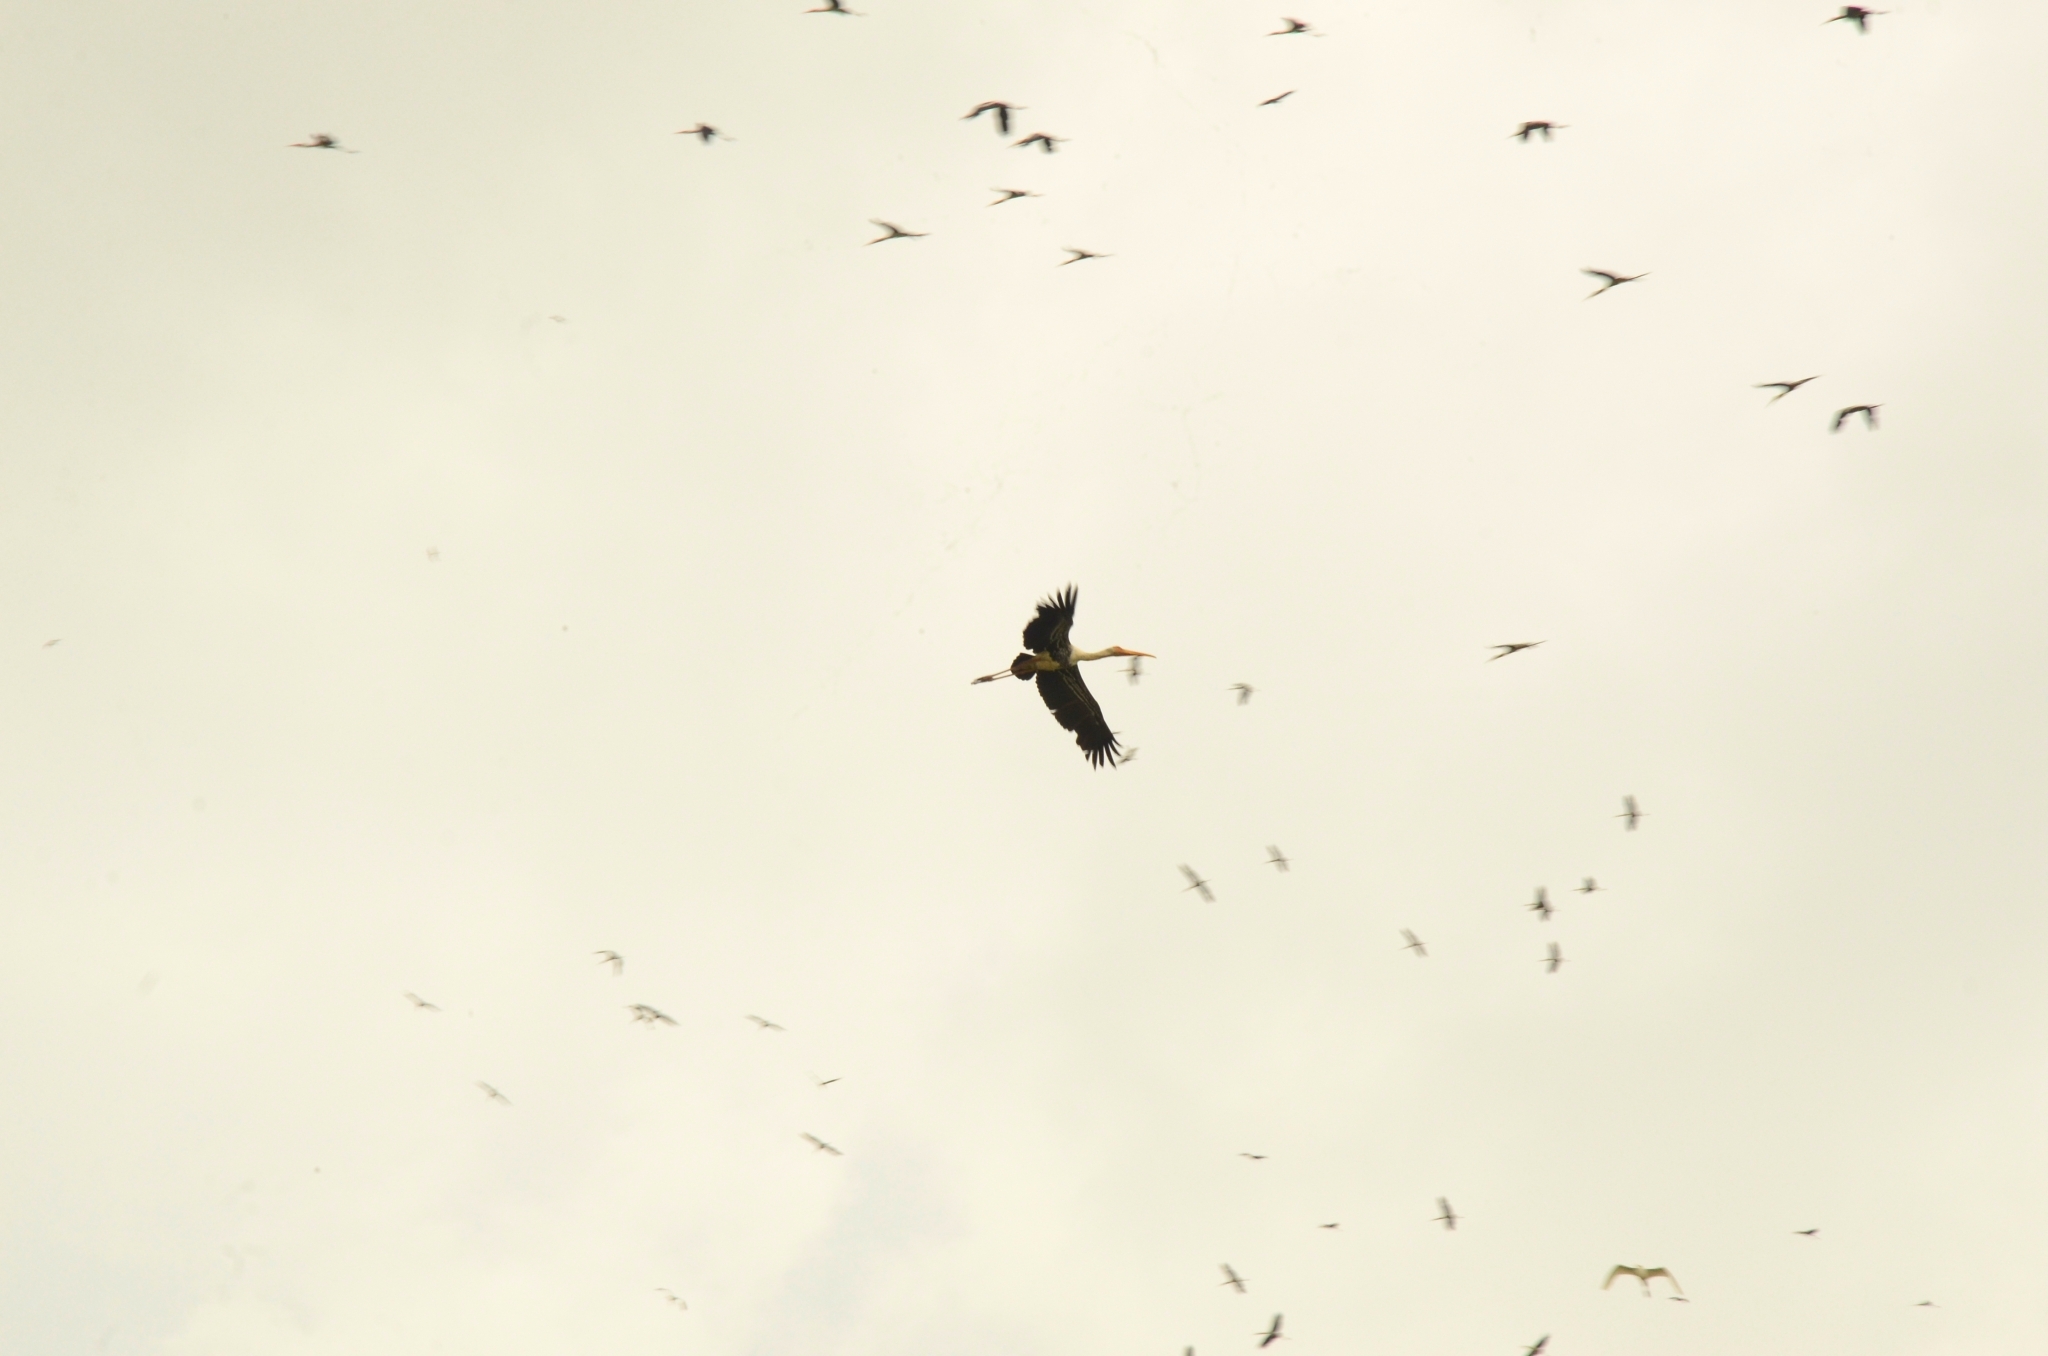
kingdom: Animalia
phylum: Chordata
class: Aves
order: Ciconiiformes
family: Ciconiidae
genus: Mycteria
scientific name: Mycteria leucocephala
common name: Painted stork
